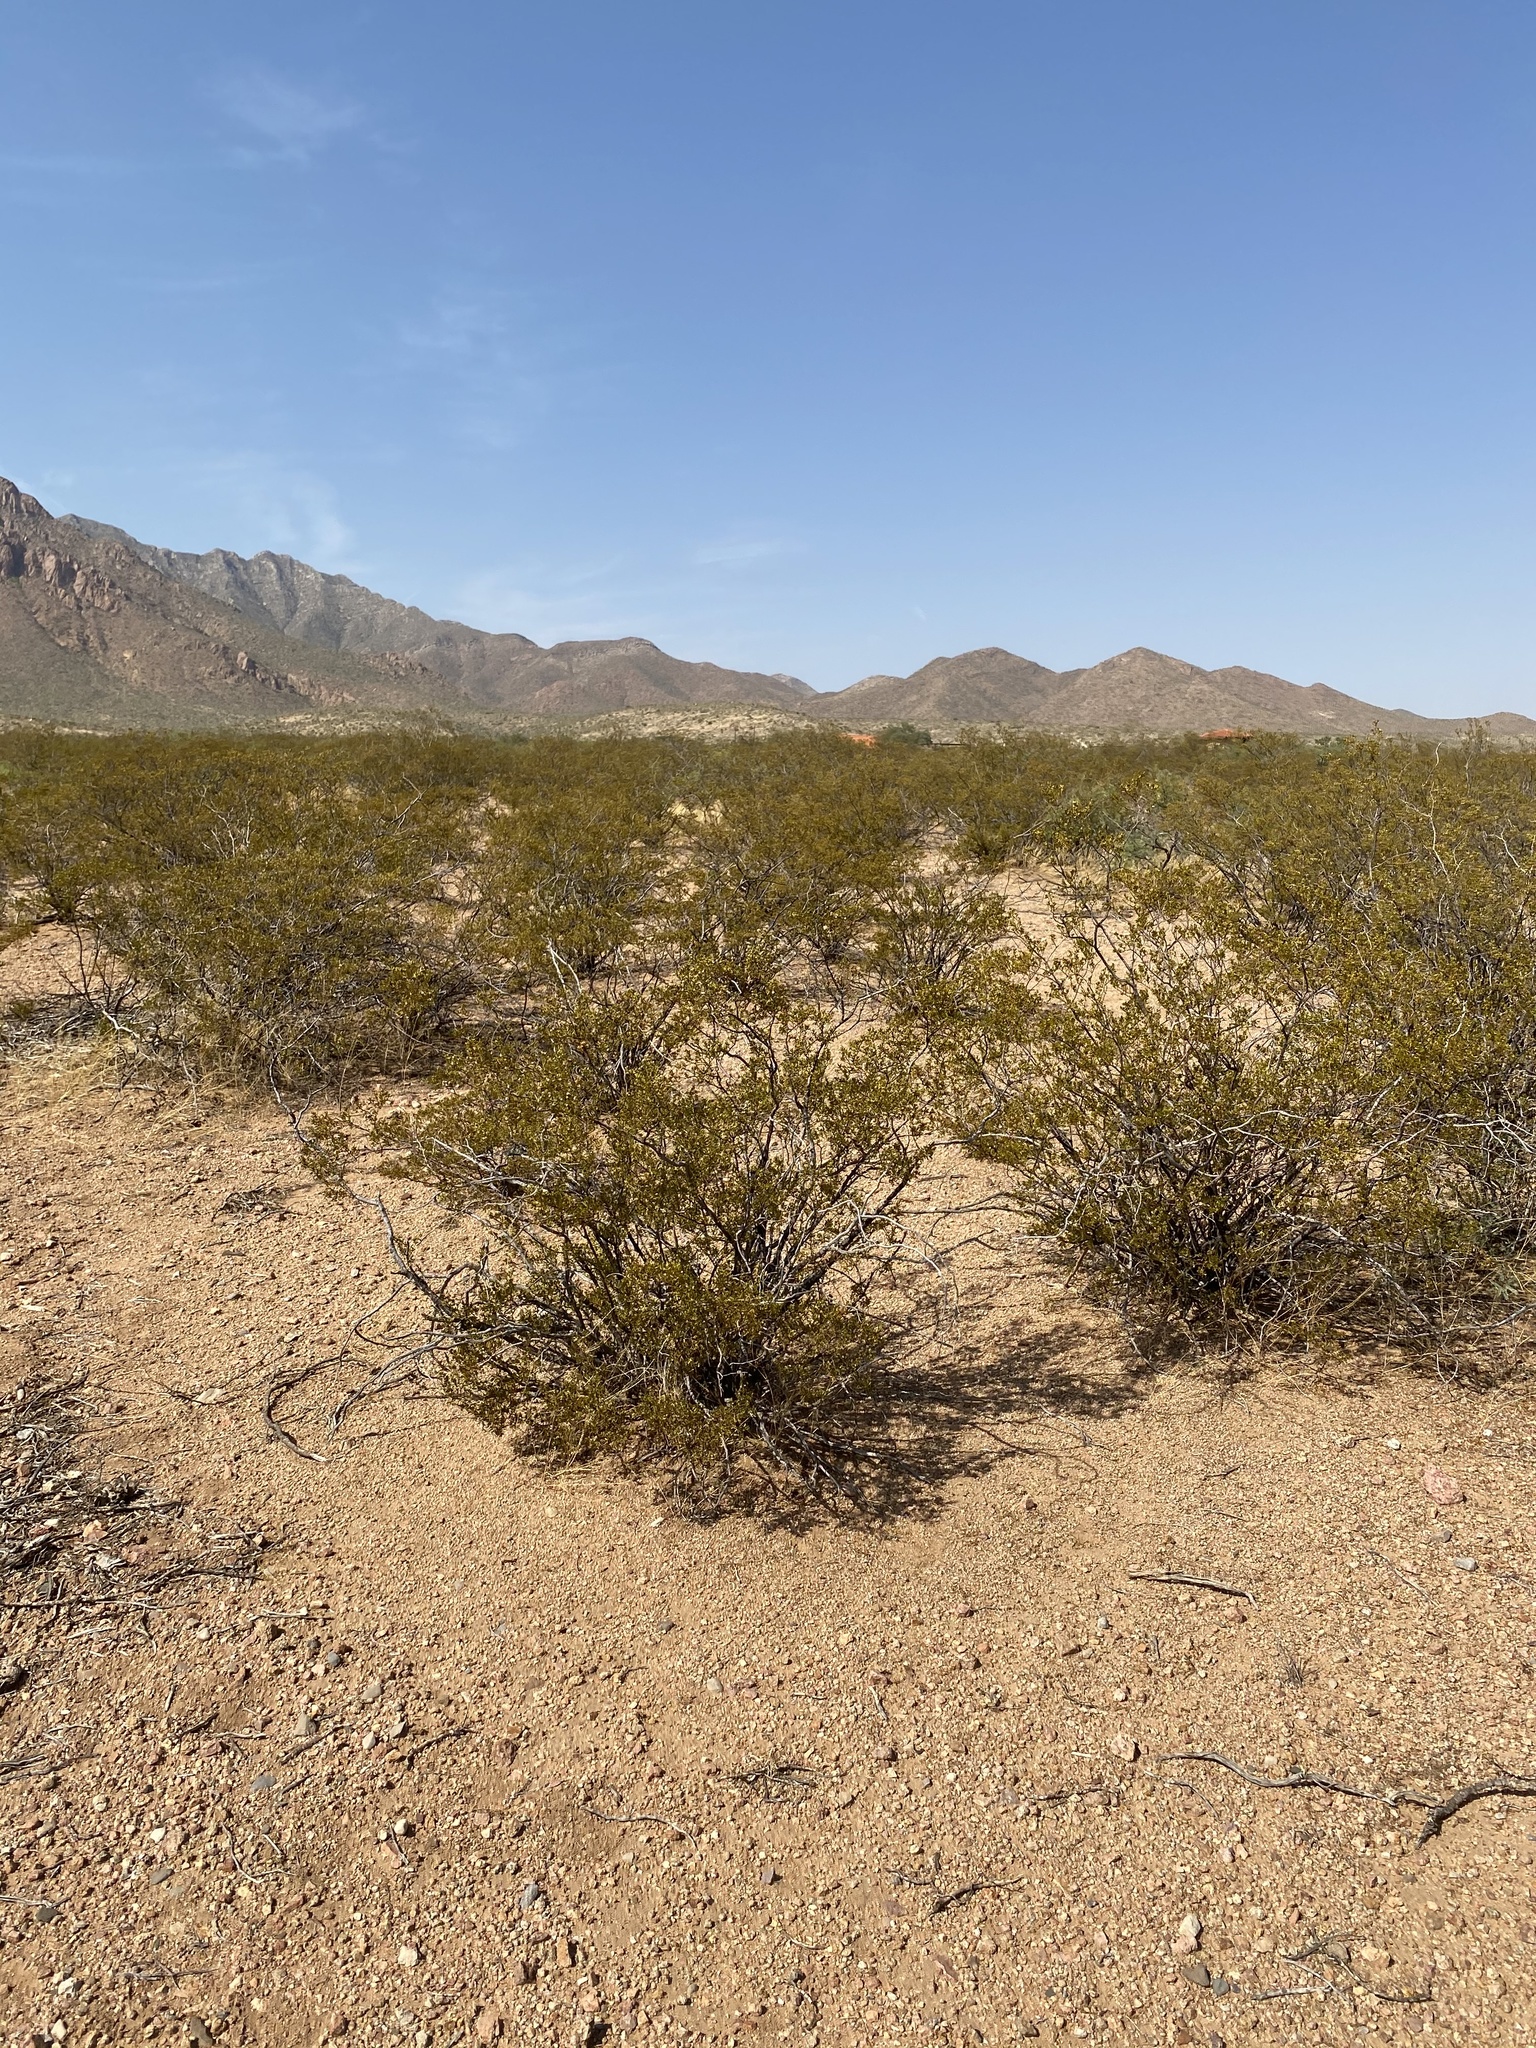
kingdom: Plantae
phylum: Tracheophyta
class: Magnoliopsida
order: Zygophyllales
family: Zygophyllaceae
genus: Larrea
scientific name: Larrea tridentata
